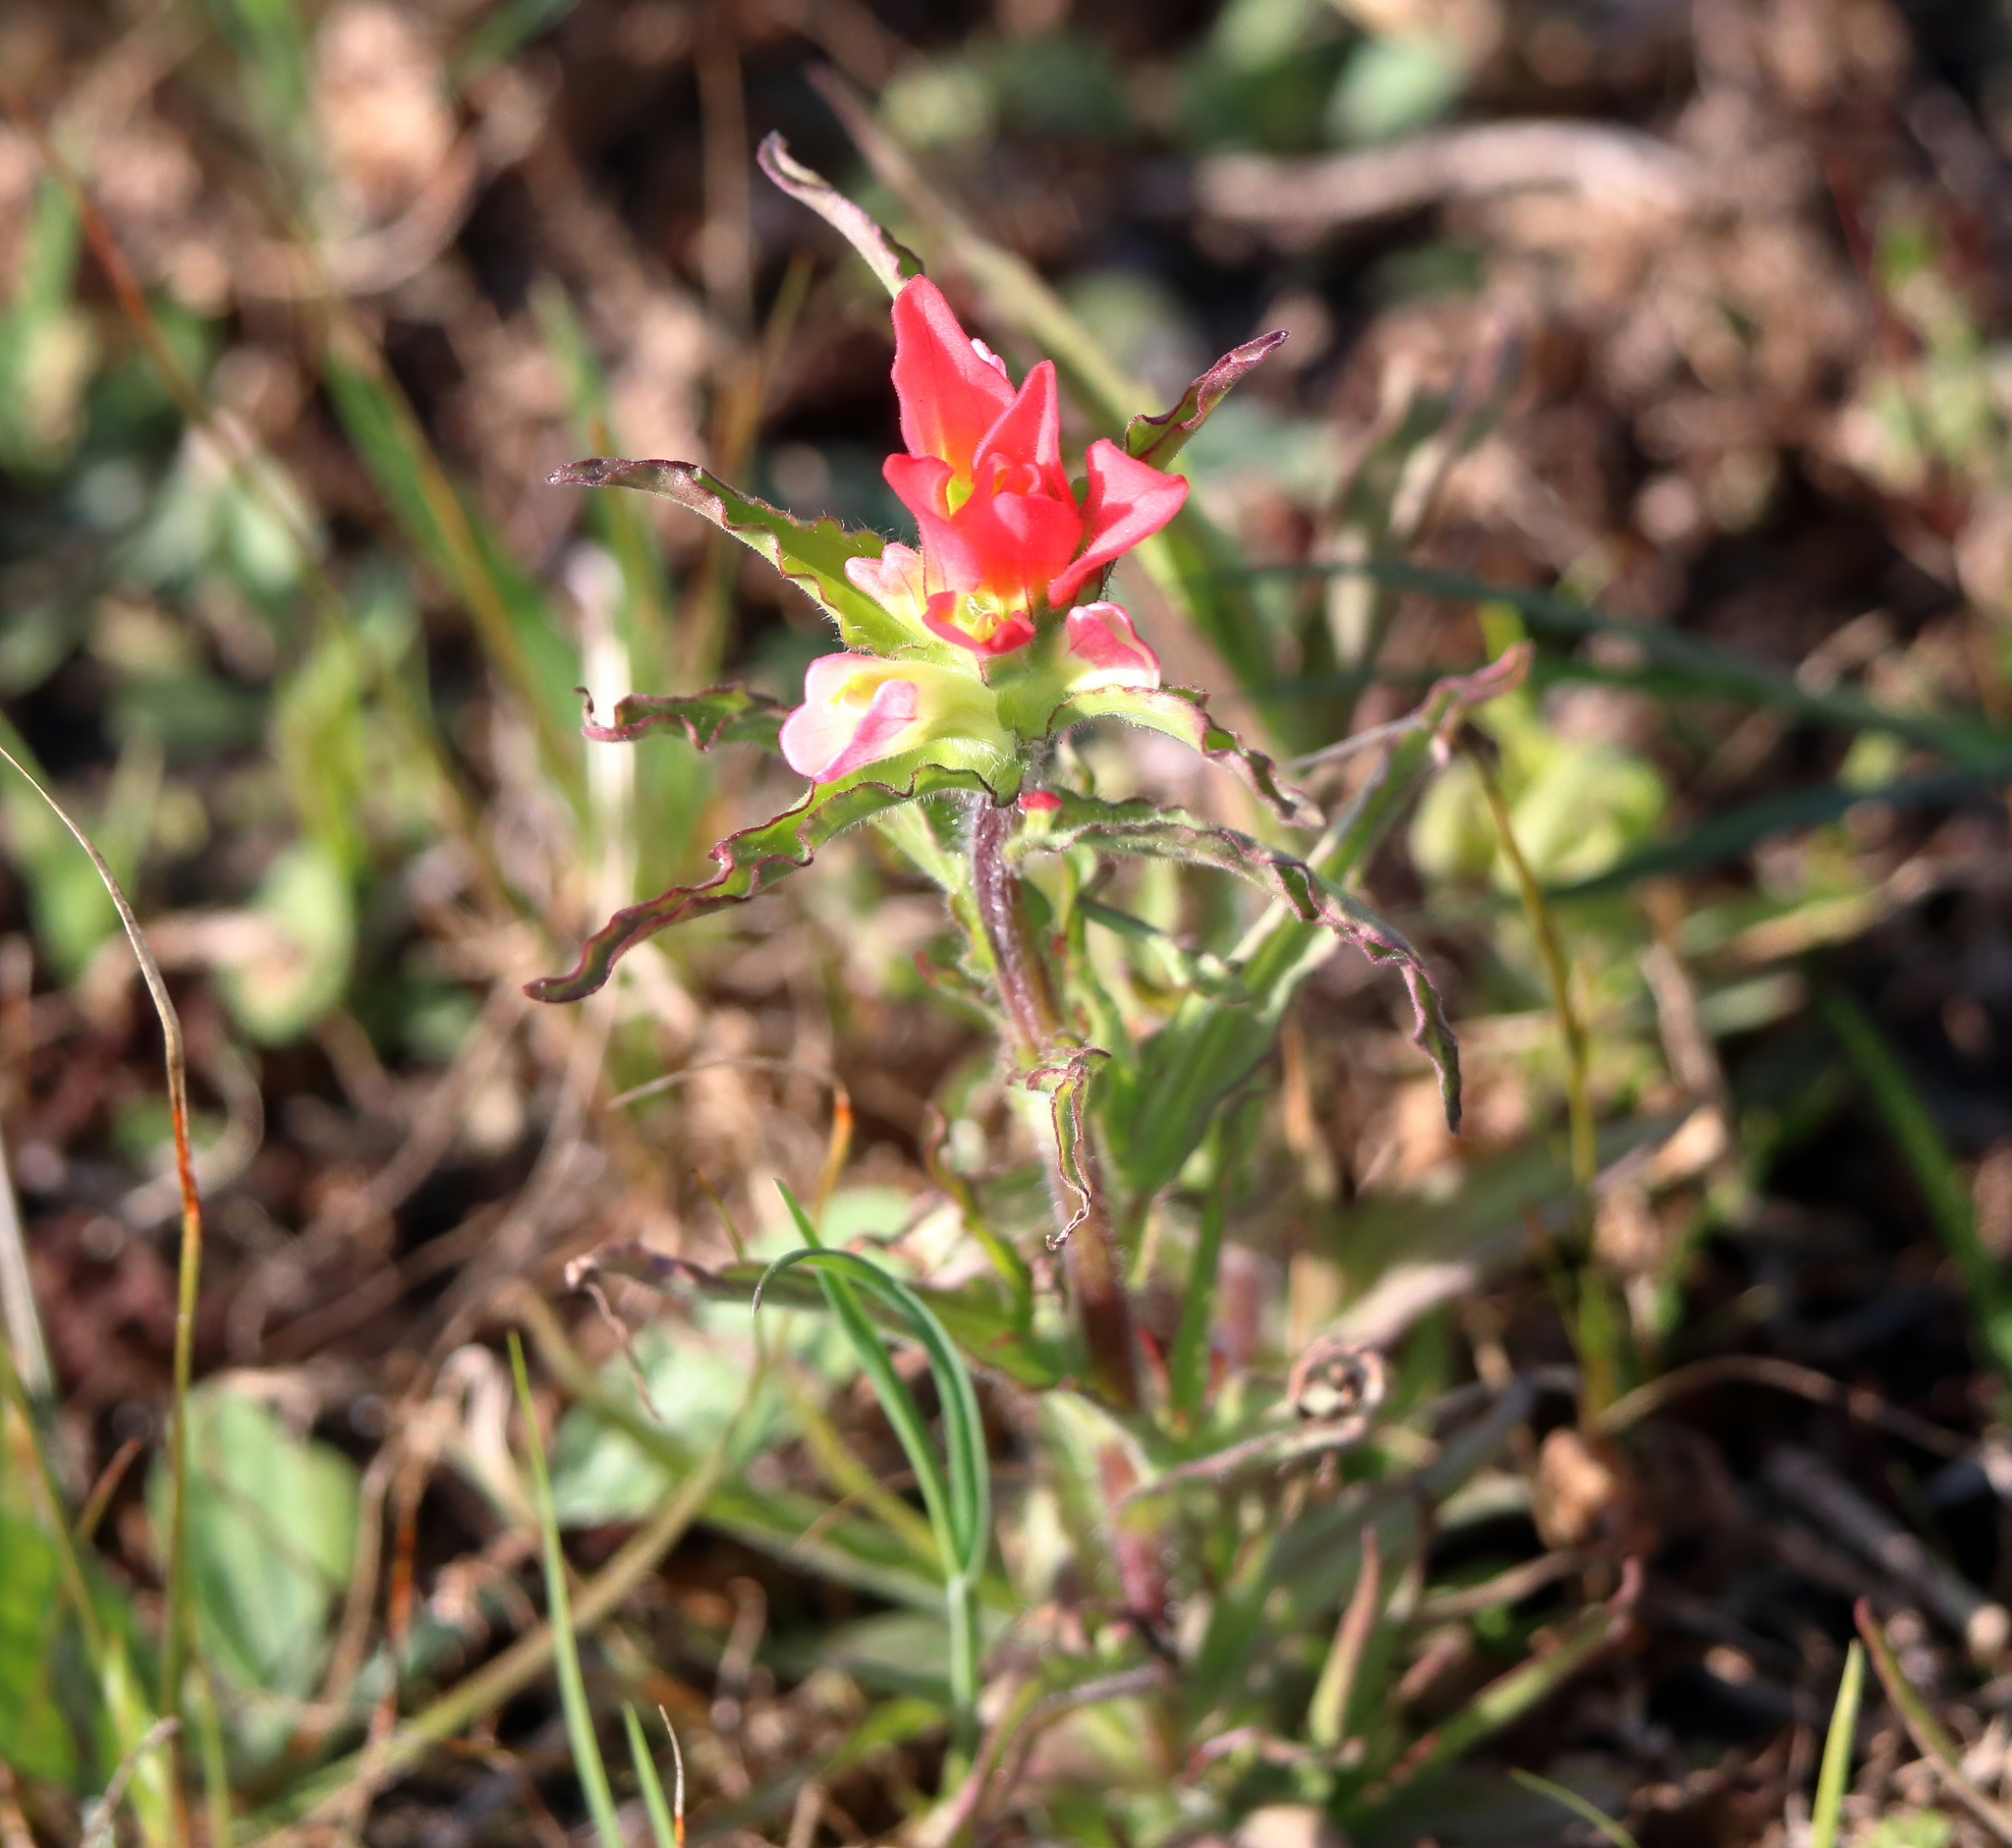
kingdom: Plantae
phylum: Tracheophyta
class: Magnoliopsida
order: Lamiales
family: Orobanchaceae
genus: Castilleja
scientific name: Castilleja indivisa
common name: Texas paintbrush
